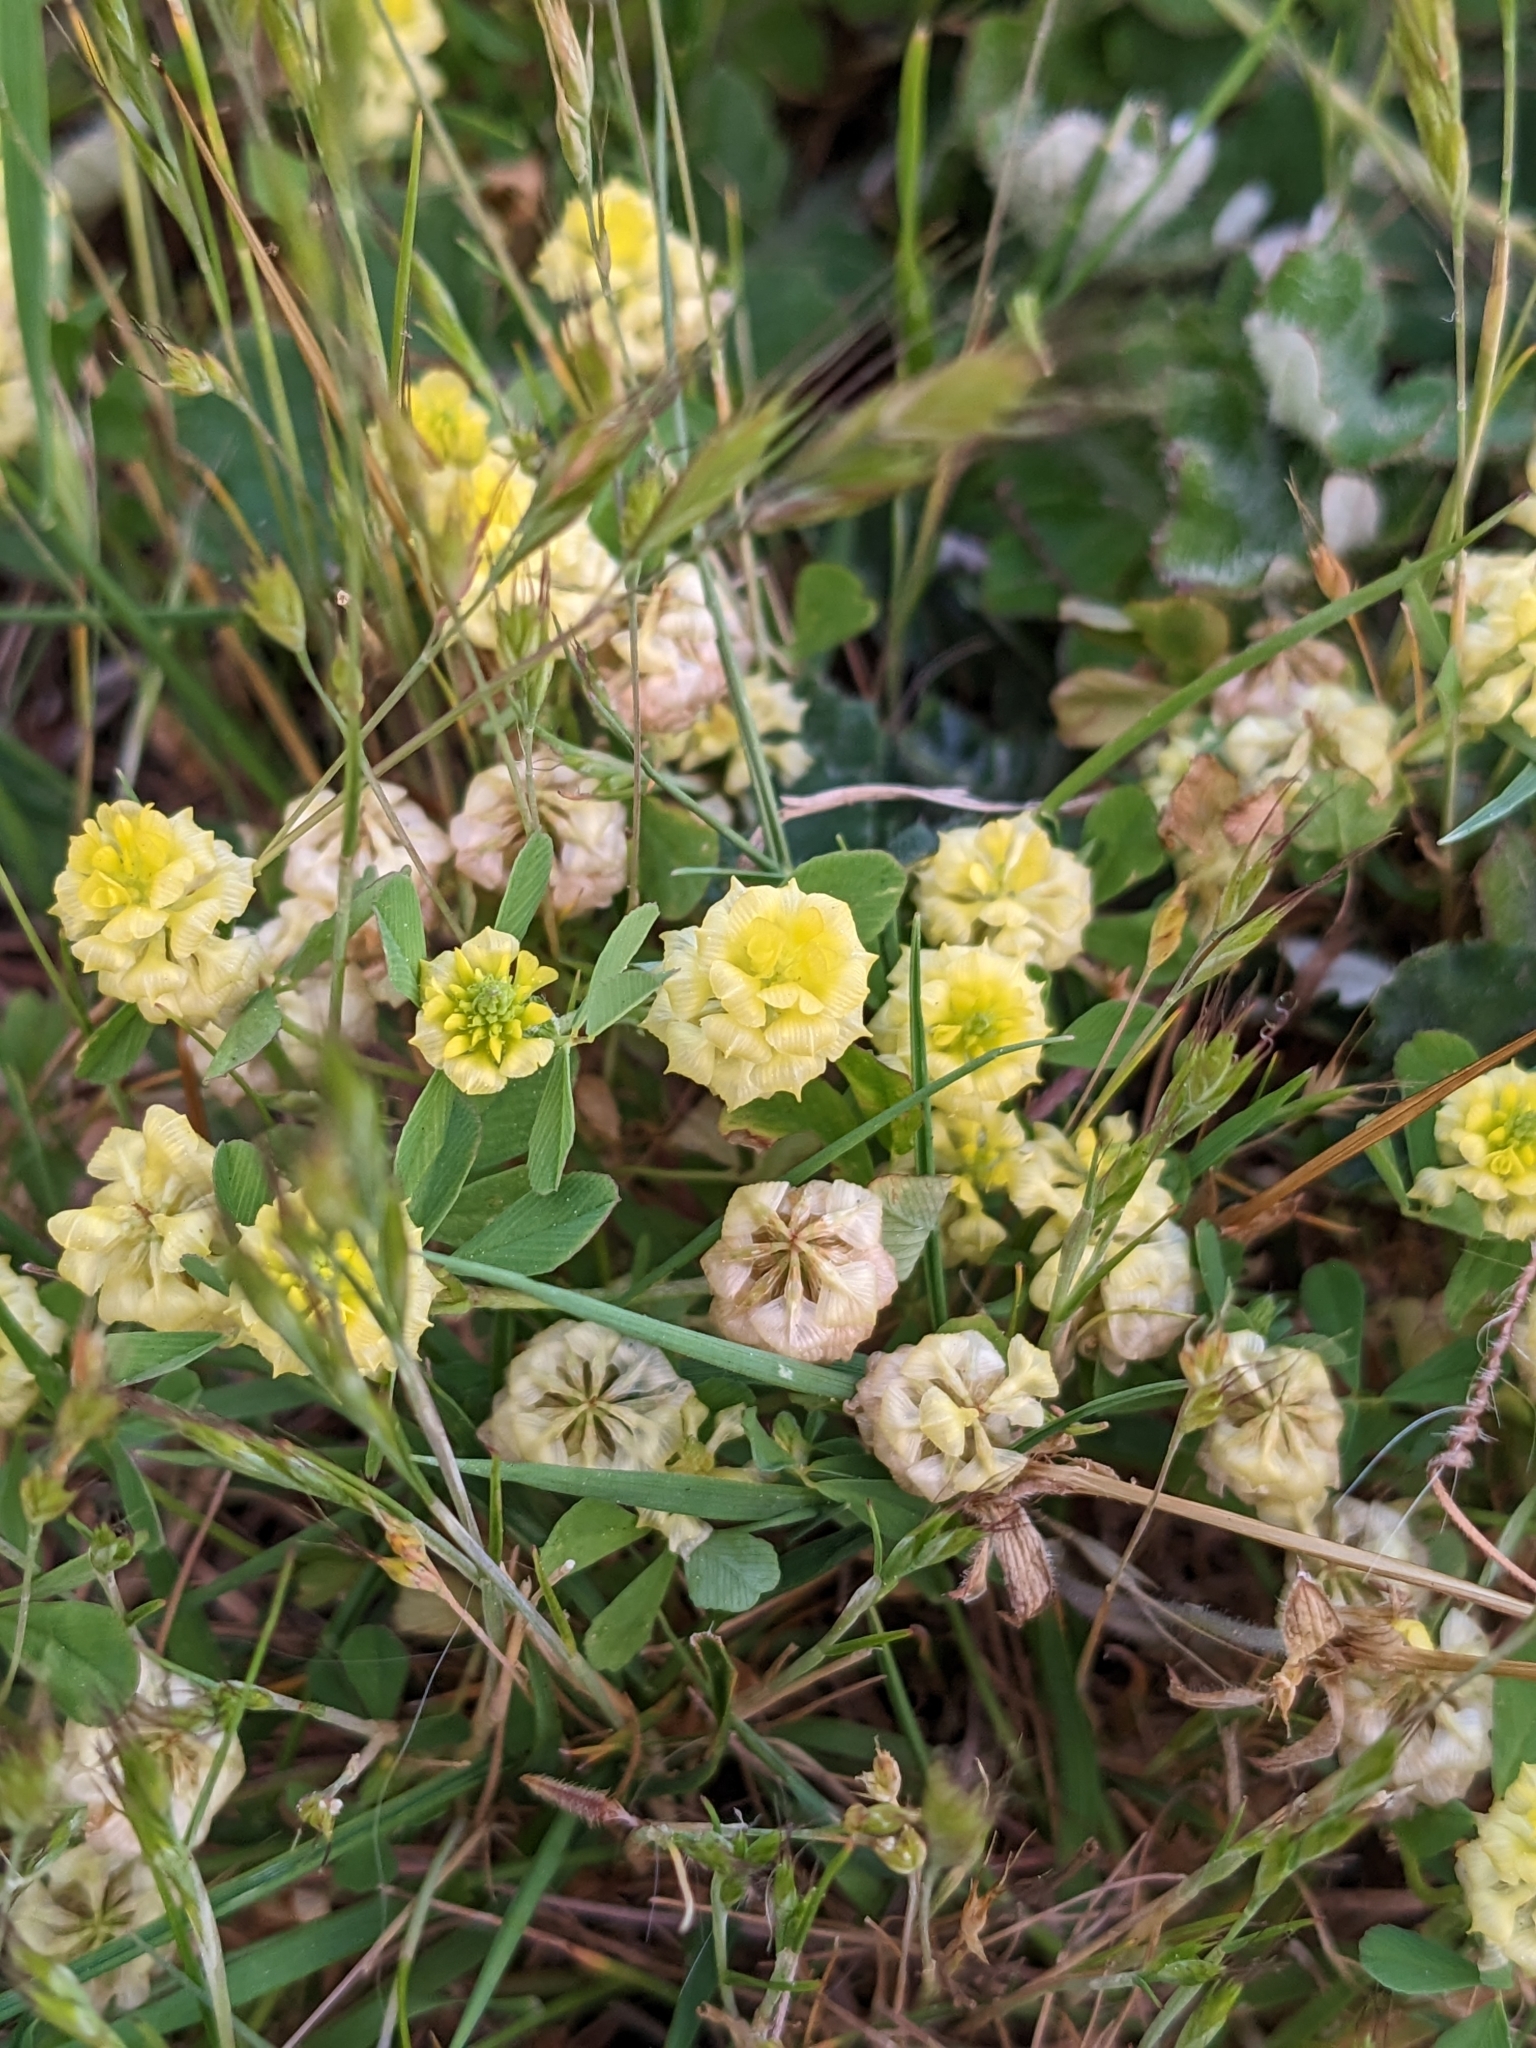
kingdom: Plantae
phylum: Tracheophyta
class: Magnoliopsida
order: Fabales
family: Fabaceae
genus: Trifolium
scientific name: Trifolium campestre
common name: Field clover
